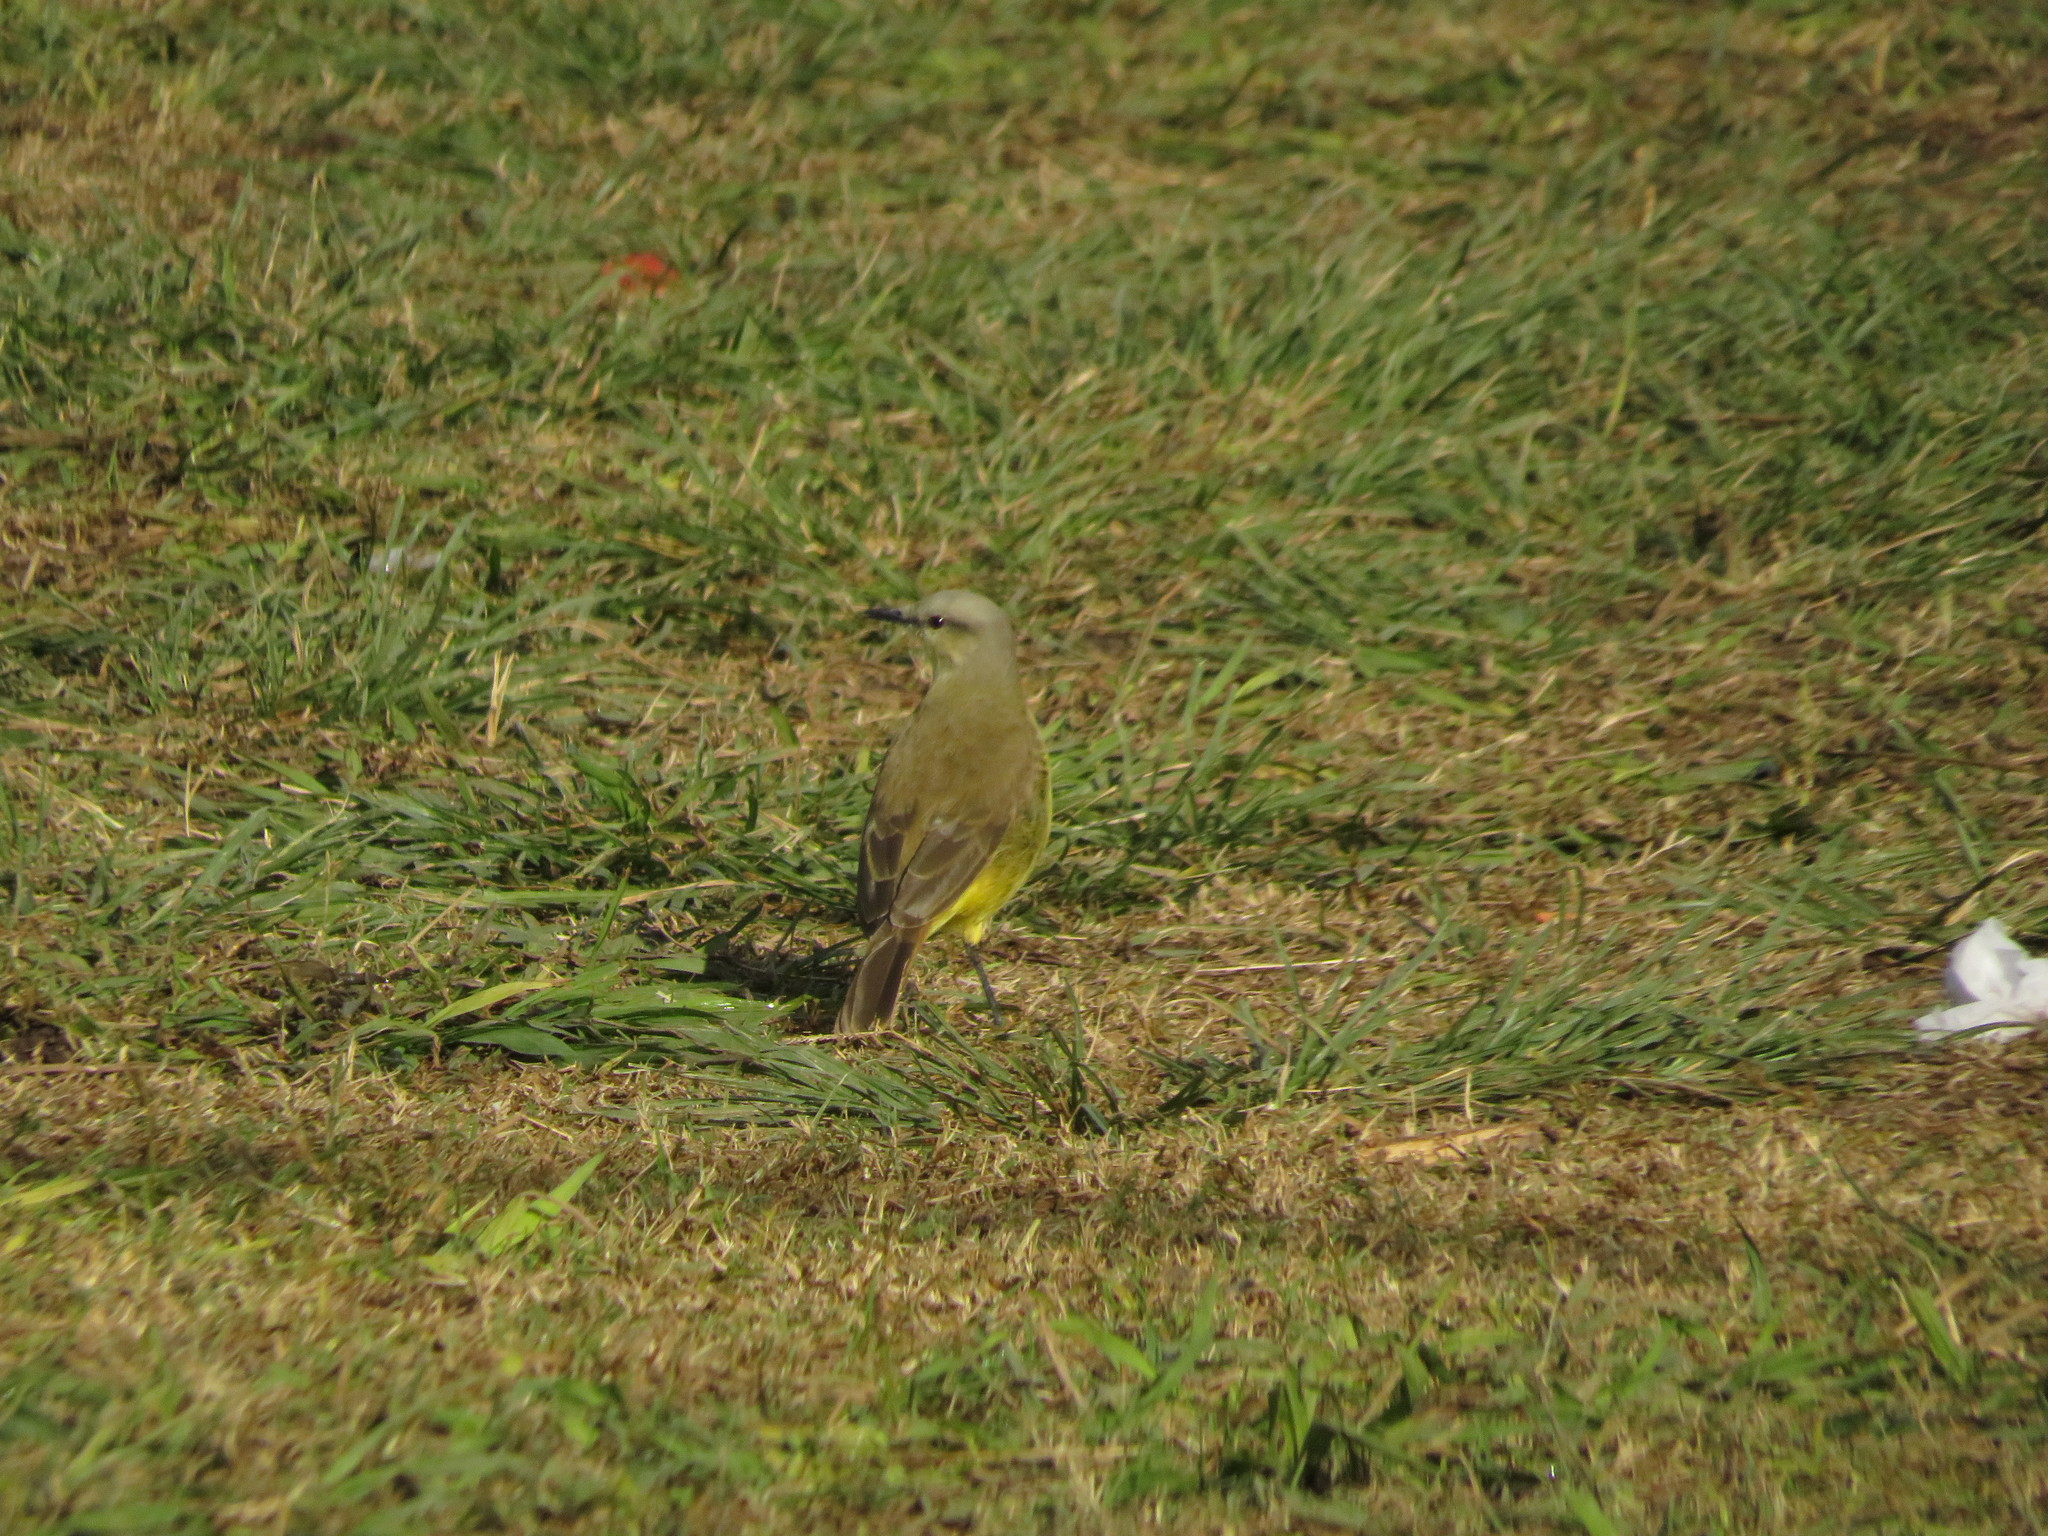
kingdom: Animalia
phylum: Chordata
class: Aves
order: Passeriformes
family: Tyrannidae
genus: Machetornis
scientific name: Machetornis rixosa
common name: Cattle tyrant
